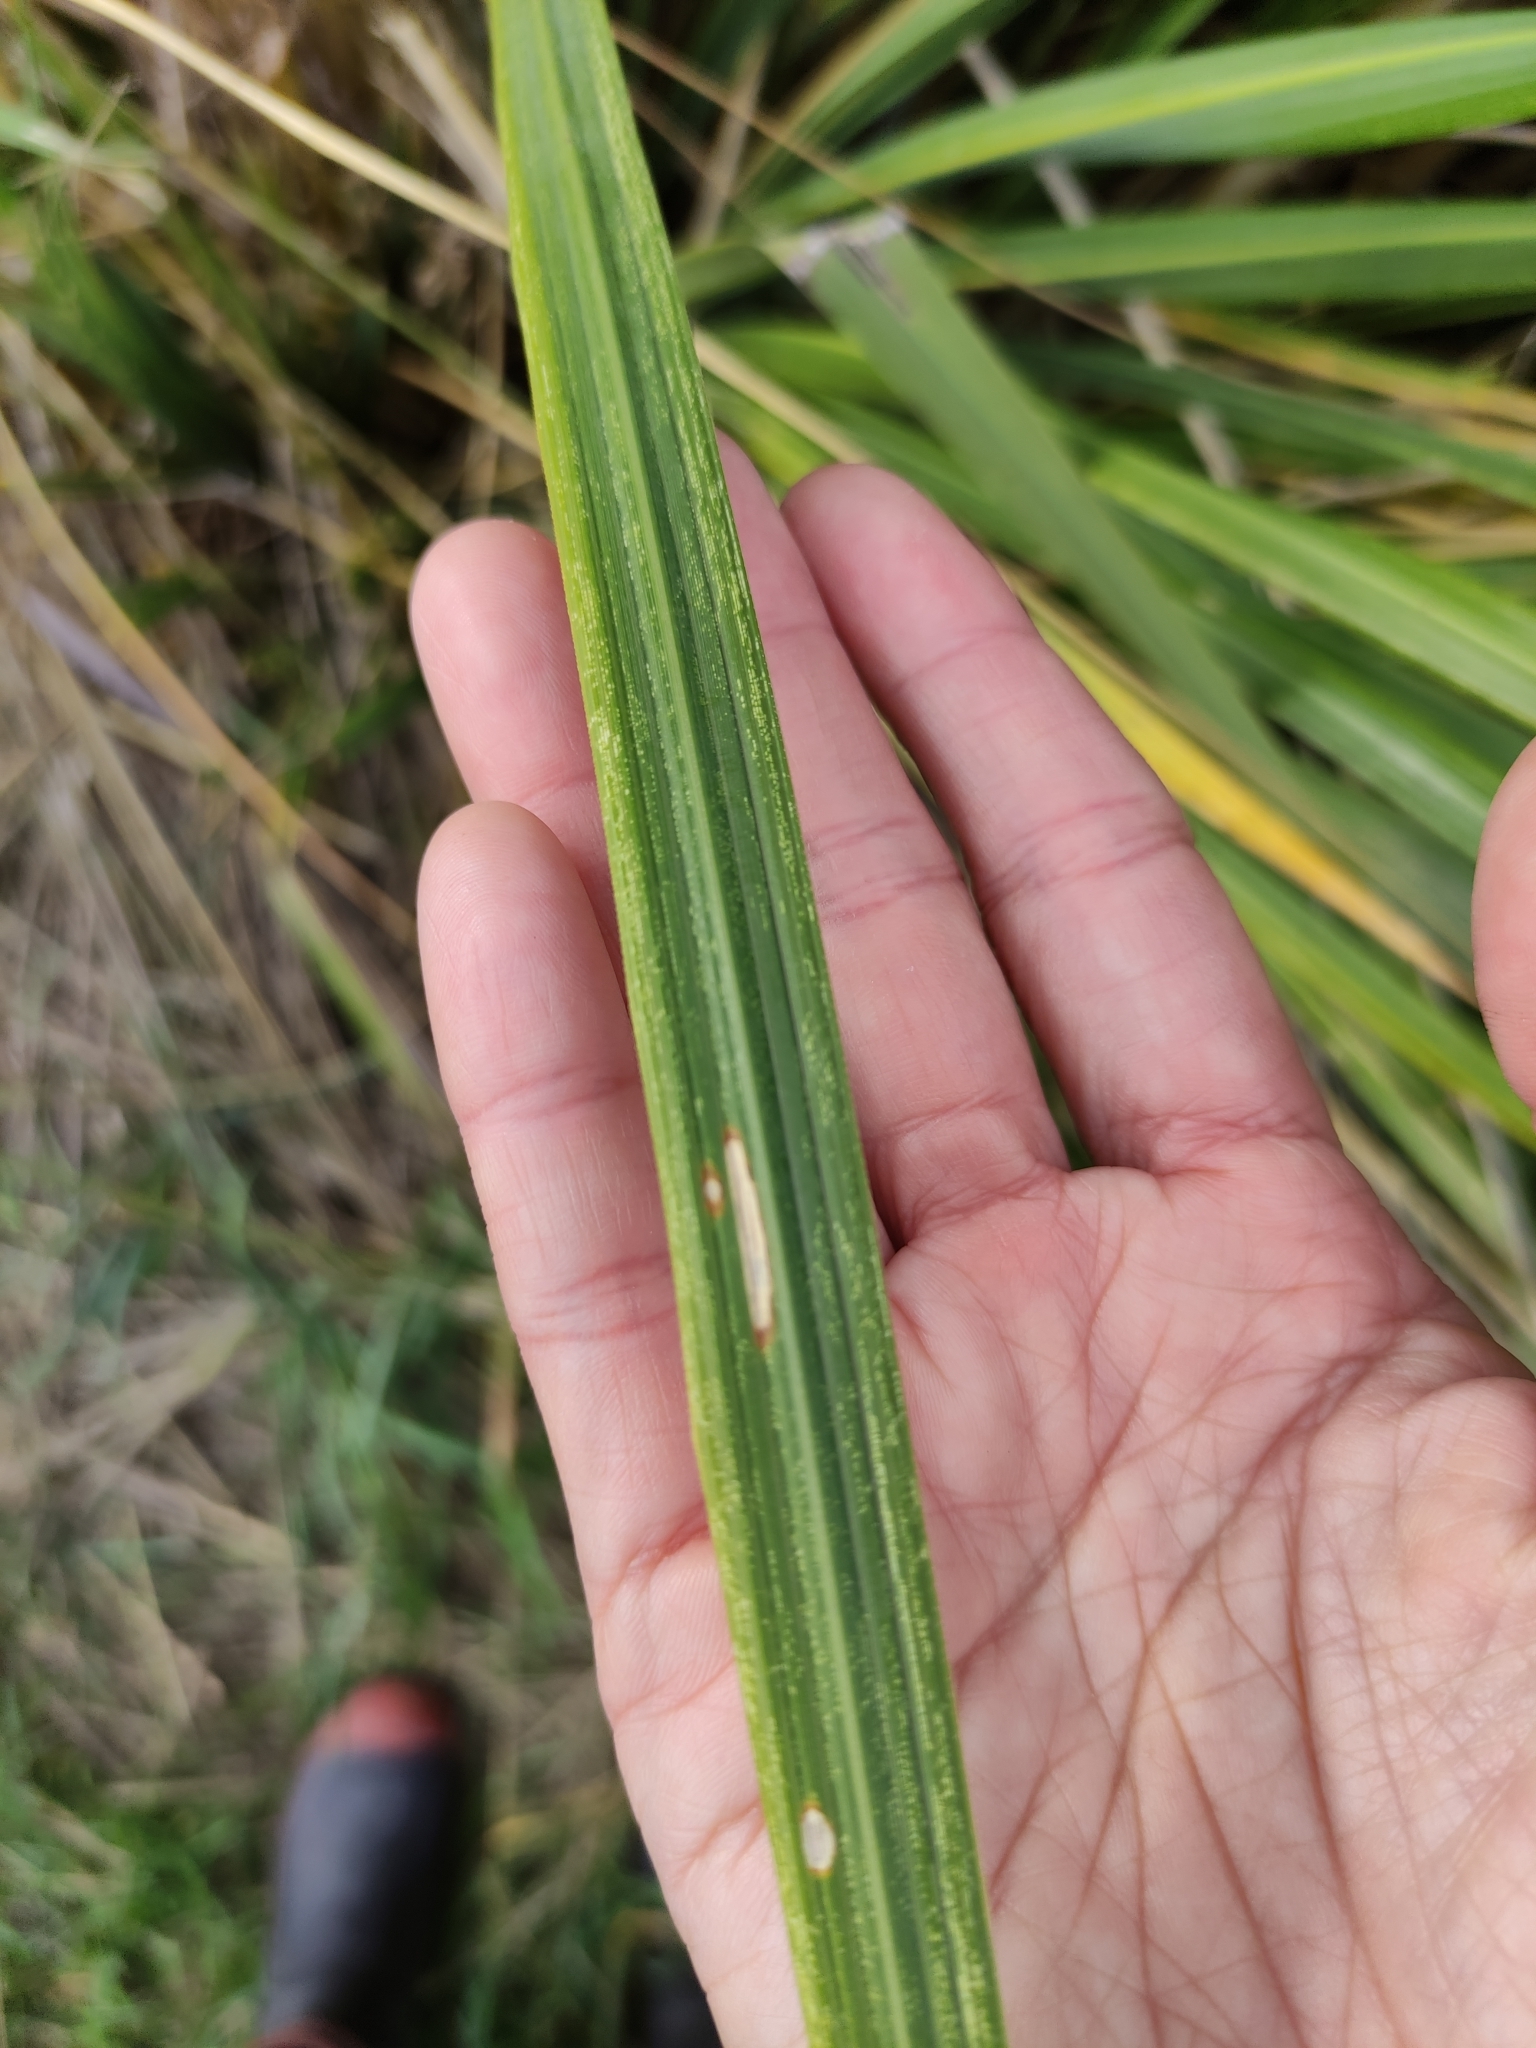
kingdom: Plantae
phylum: Tracheophyta
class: Liliopsida
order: Poales
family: Poaceae
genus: Austroderia
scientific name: Austroderia richardii
